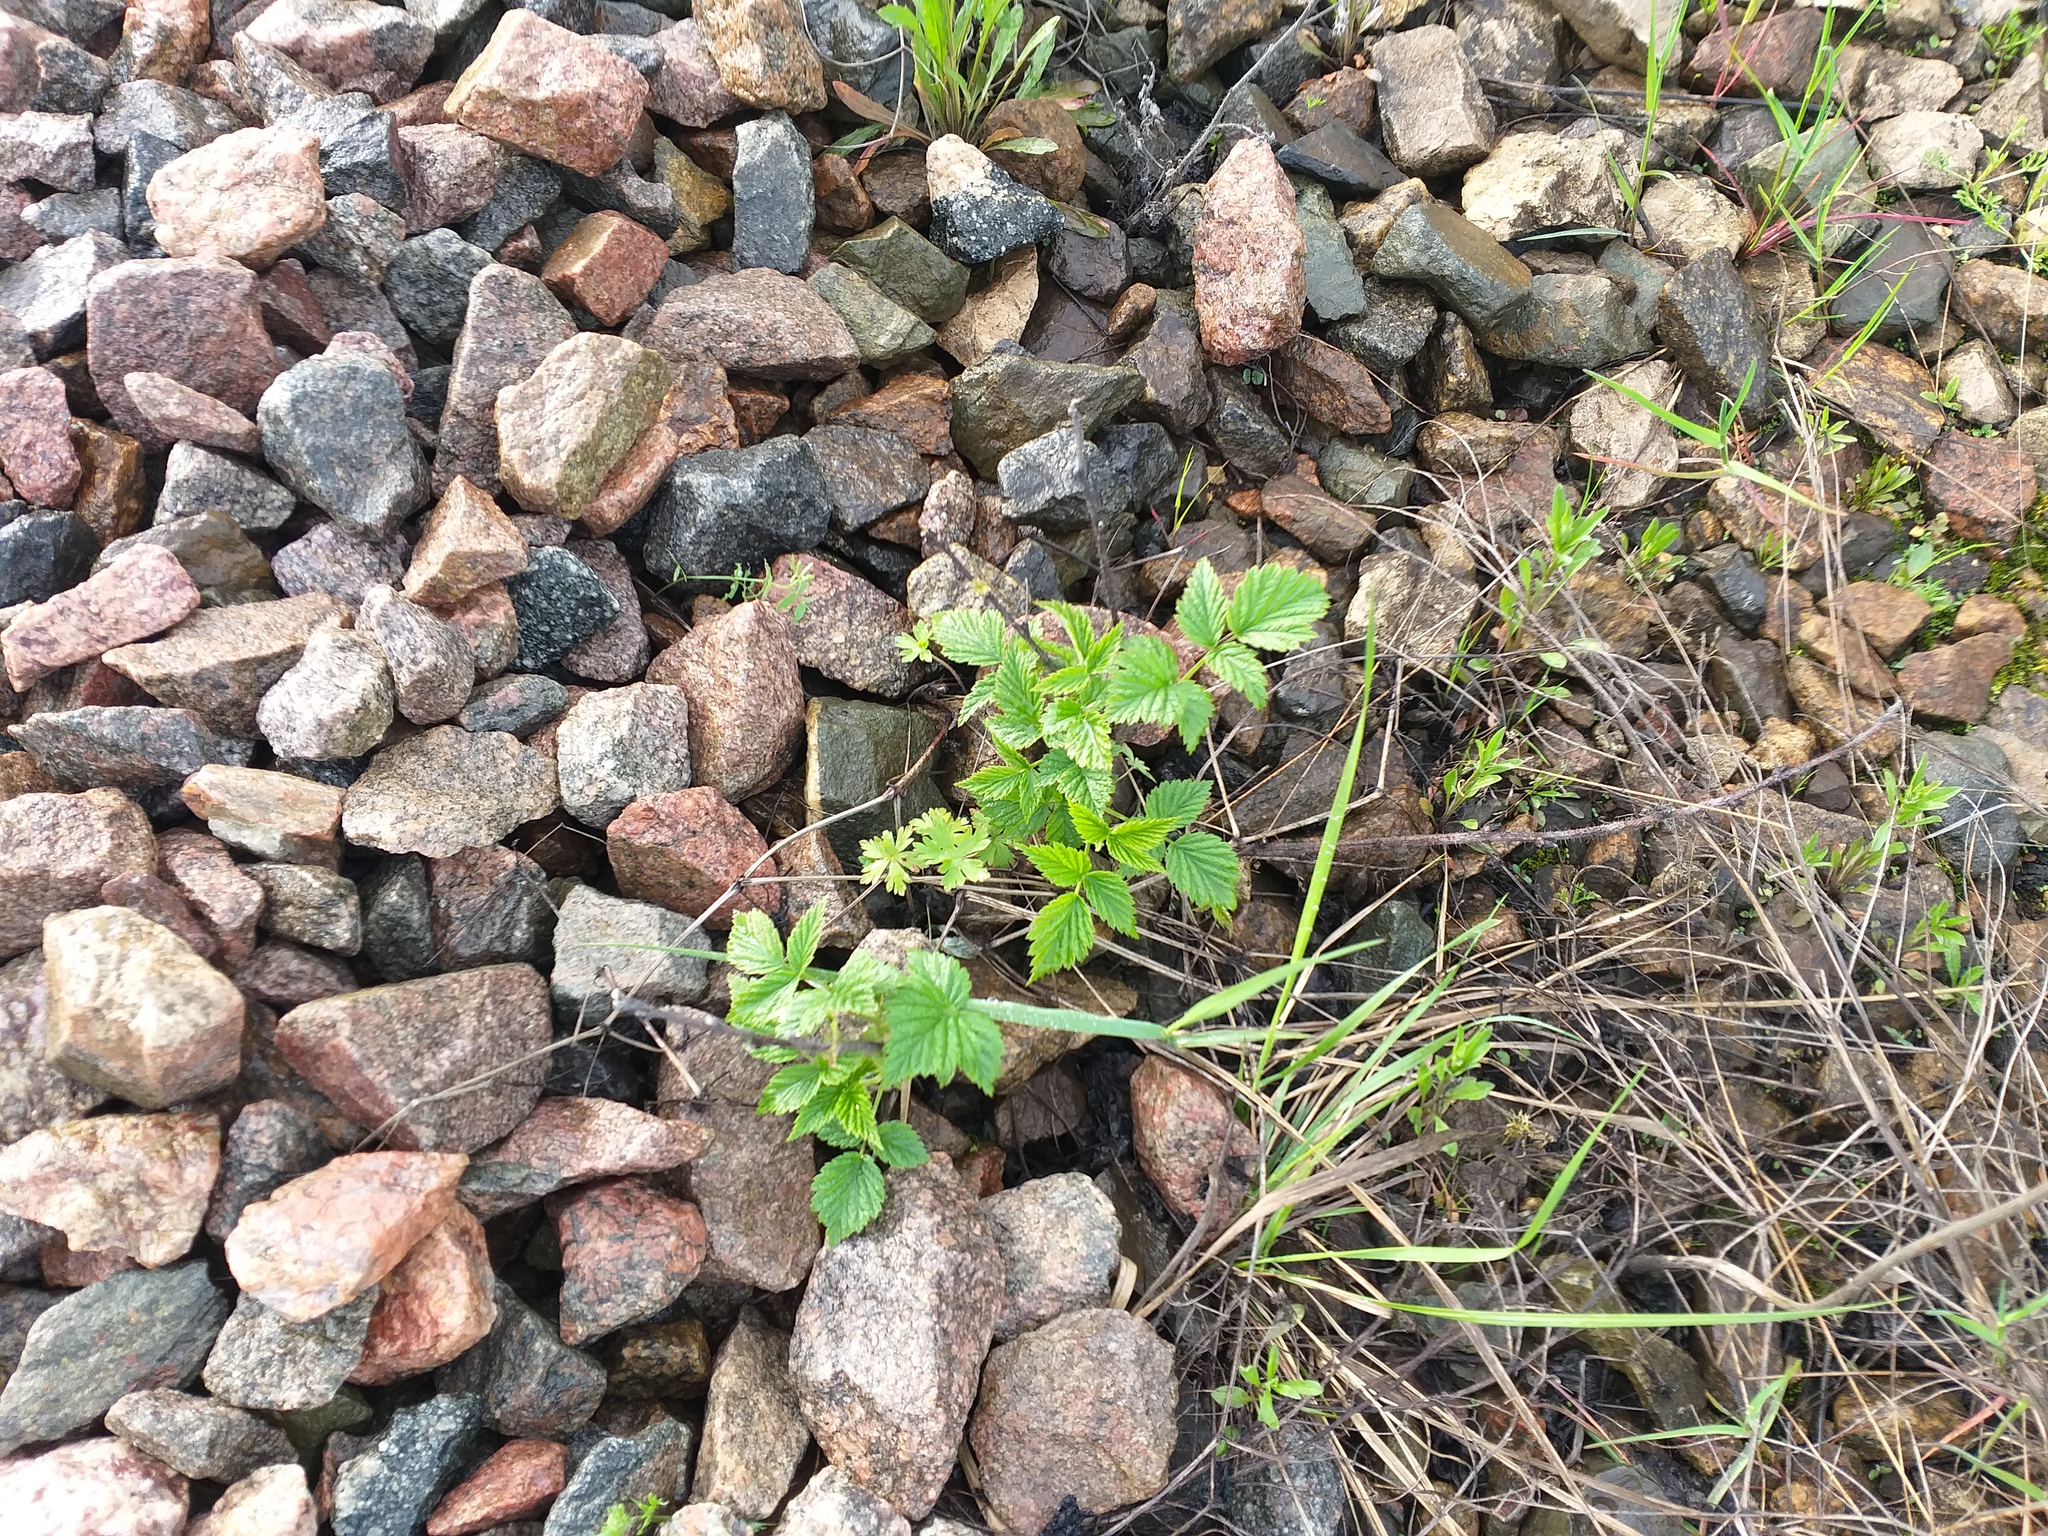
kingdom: Plantae
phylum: Tracheophyta
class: Magnoliopsida
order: Rosales
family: Rosaceae
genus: Rubus
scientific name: Rubus idaeus
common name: Raspberry
